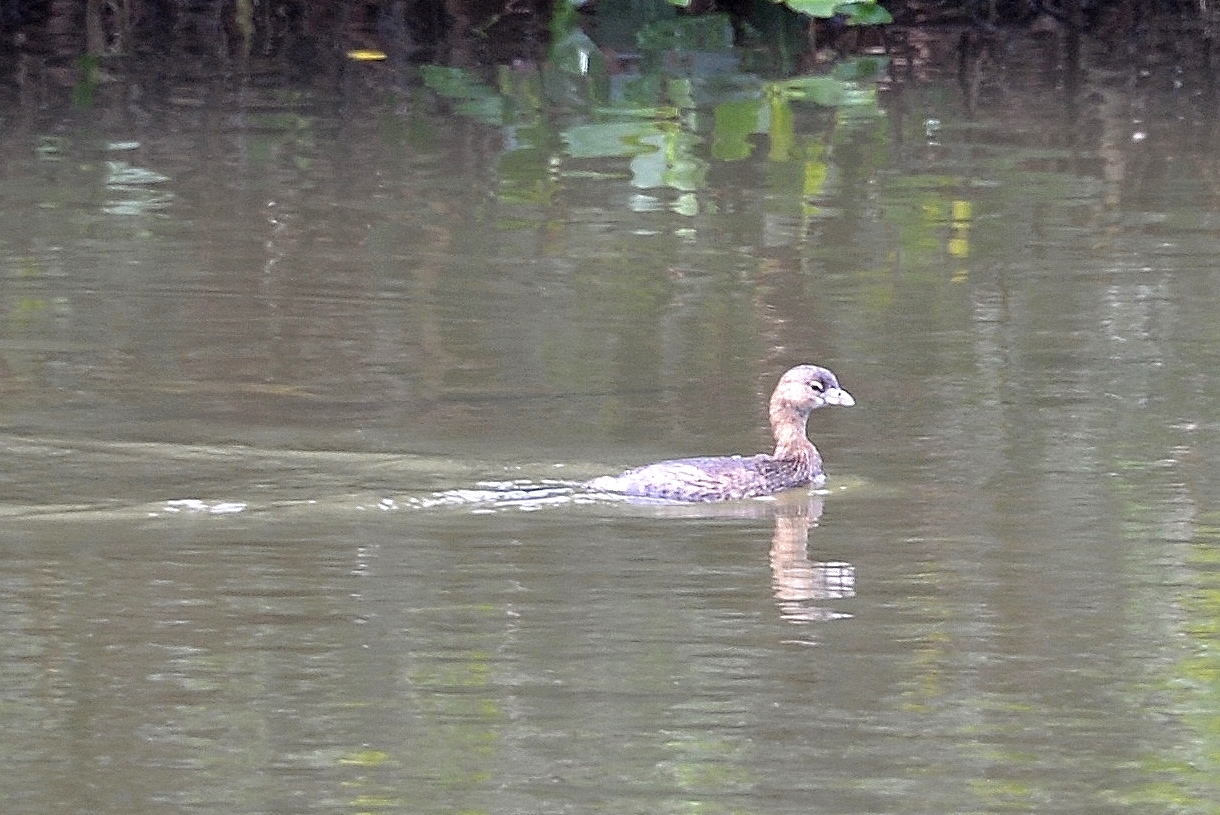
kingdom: Animalia
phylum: Chordata
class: Aves
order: Podicipediformes
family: Podicipedidae
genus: Podilymbus
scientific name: Podilymbus podiceps
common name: Pied-billed grebe
